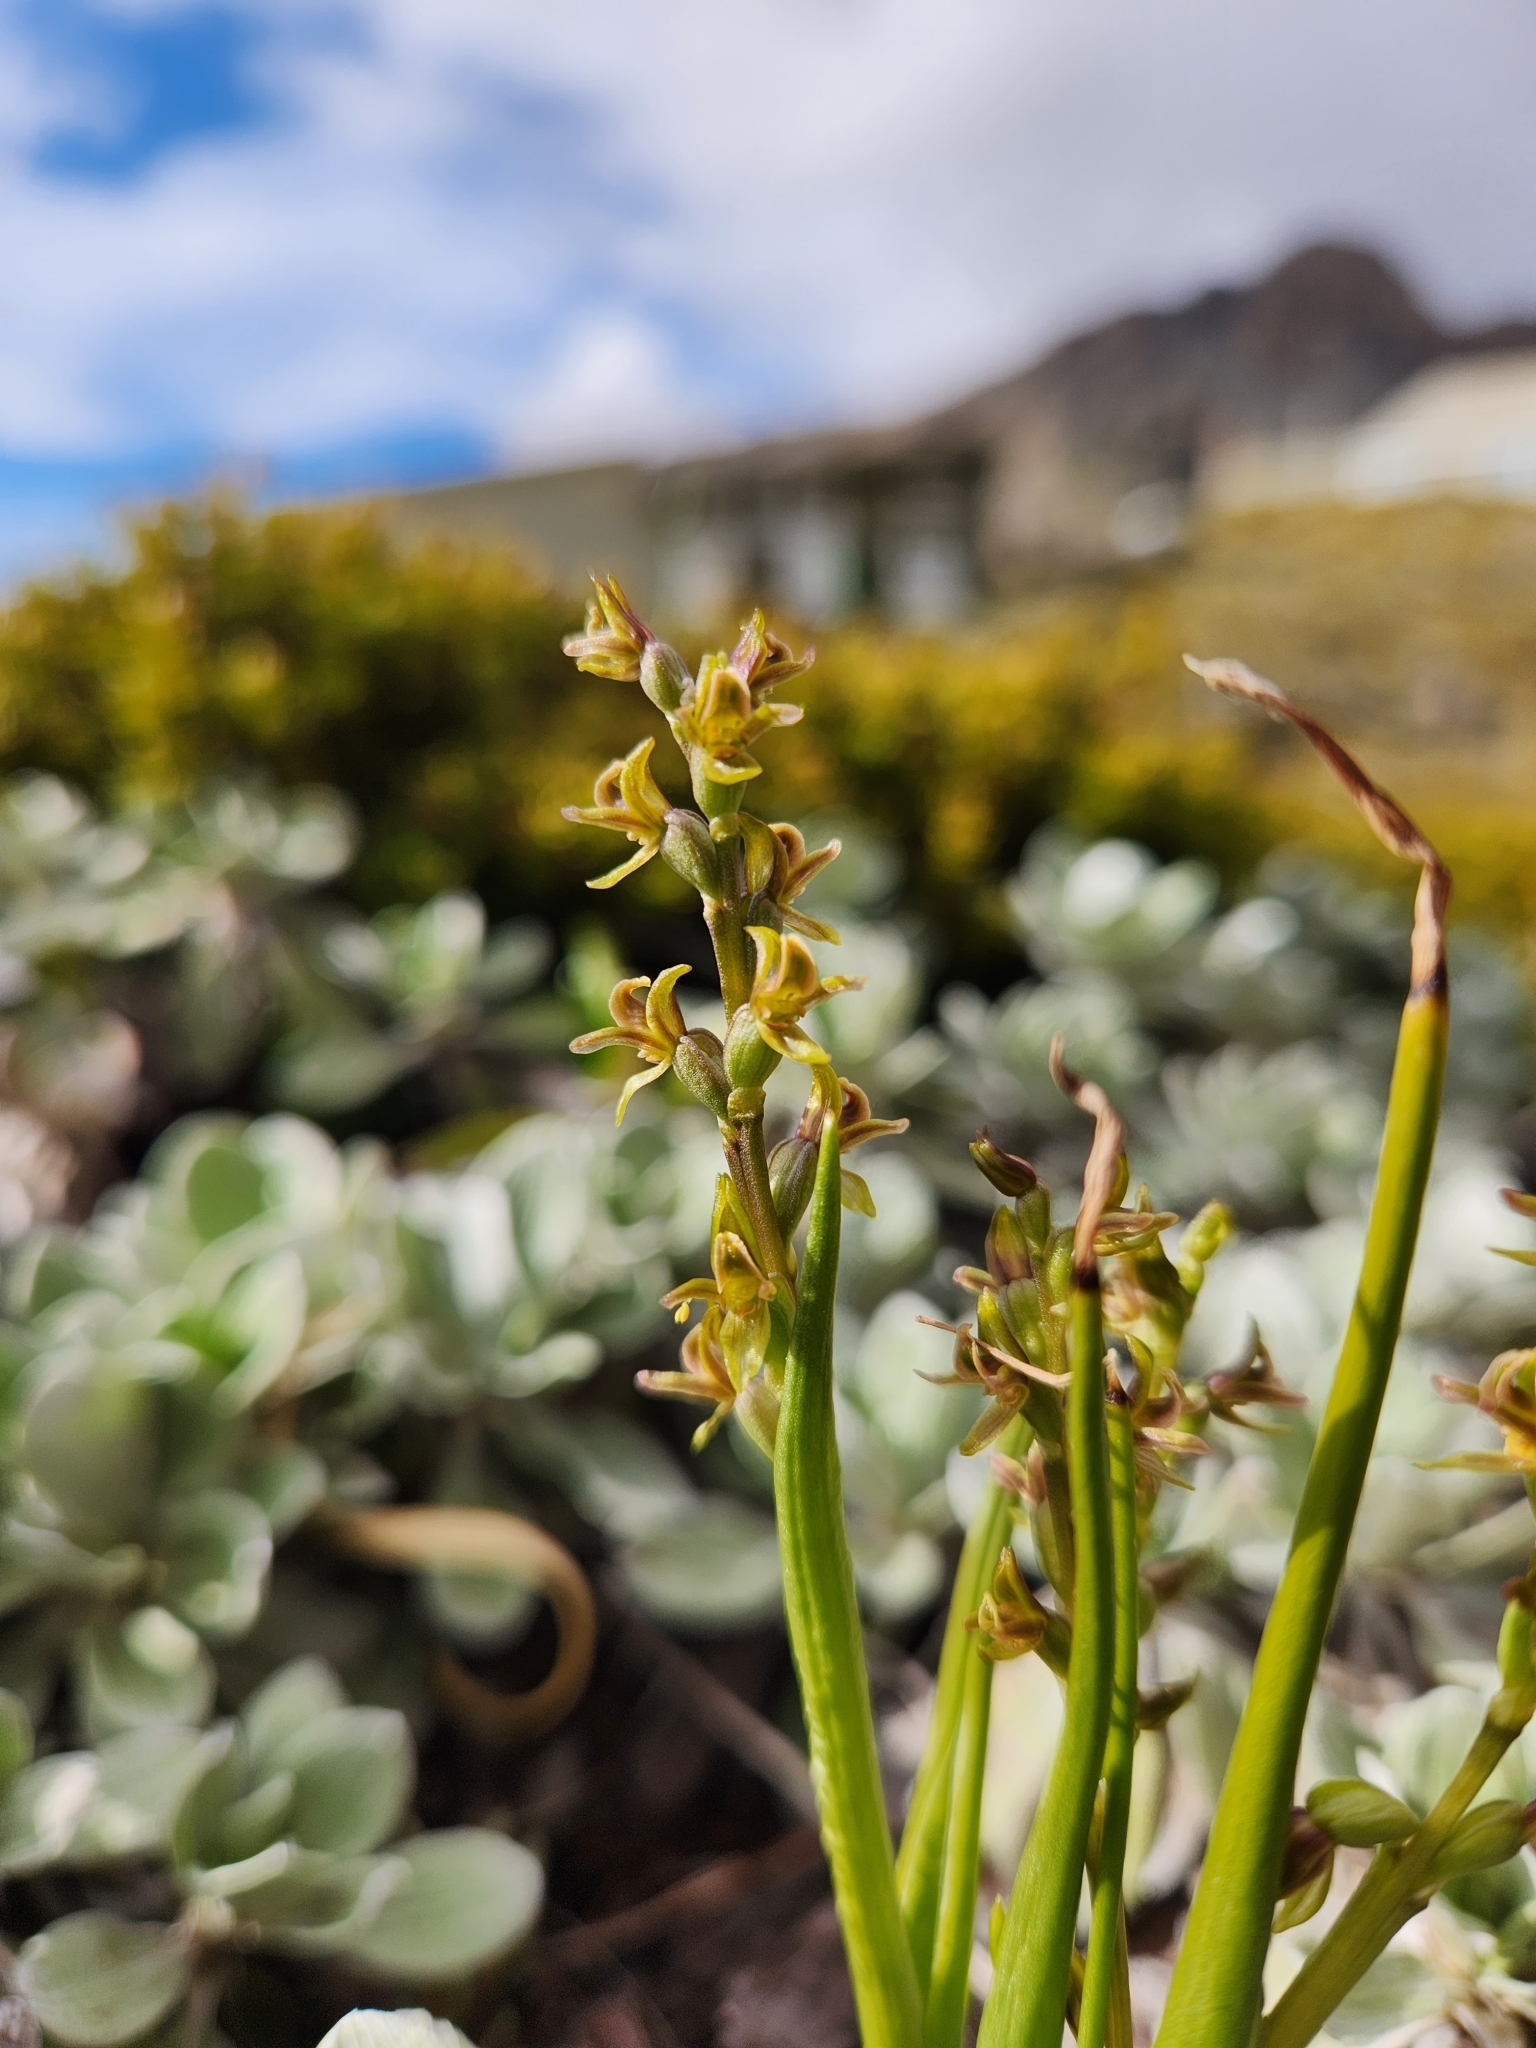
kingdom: Plantae
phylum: Tracheophyta
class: Liliopsida
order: Asparagales
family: Orchidaceae
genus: Prasophyllum
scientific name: Prasophyllum colensoi
